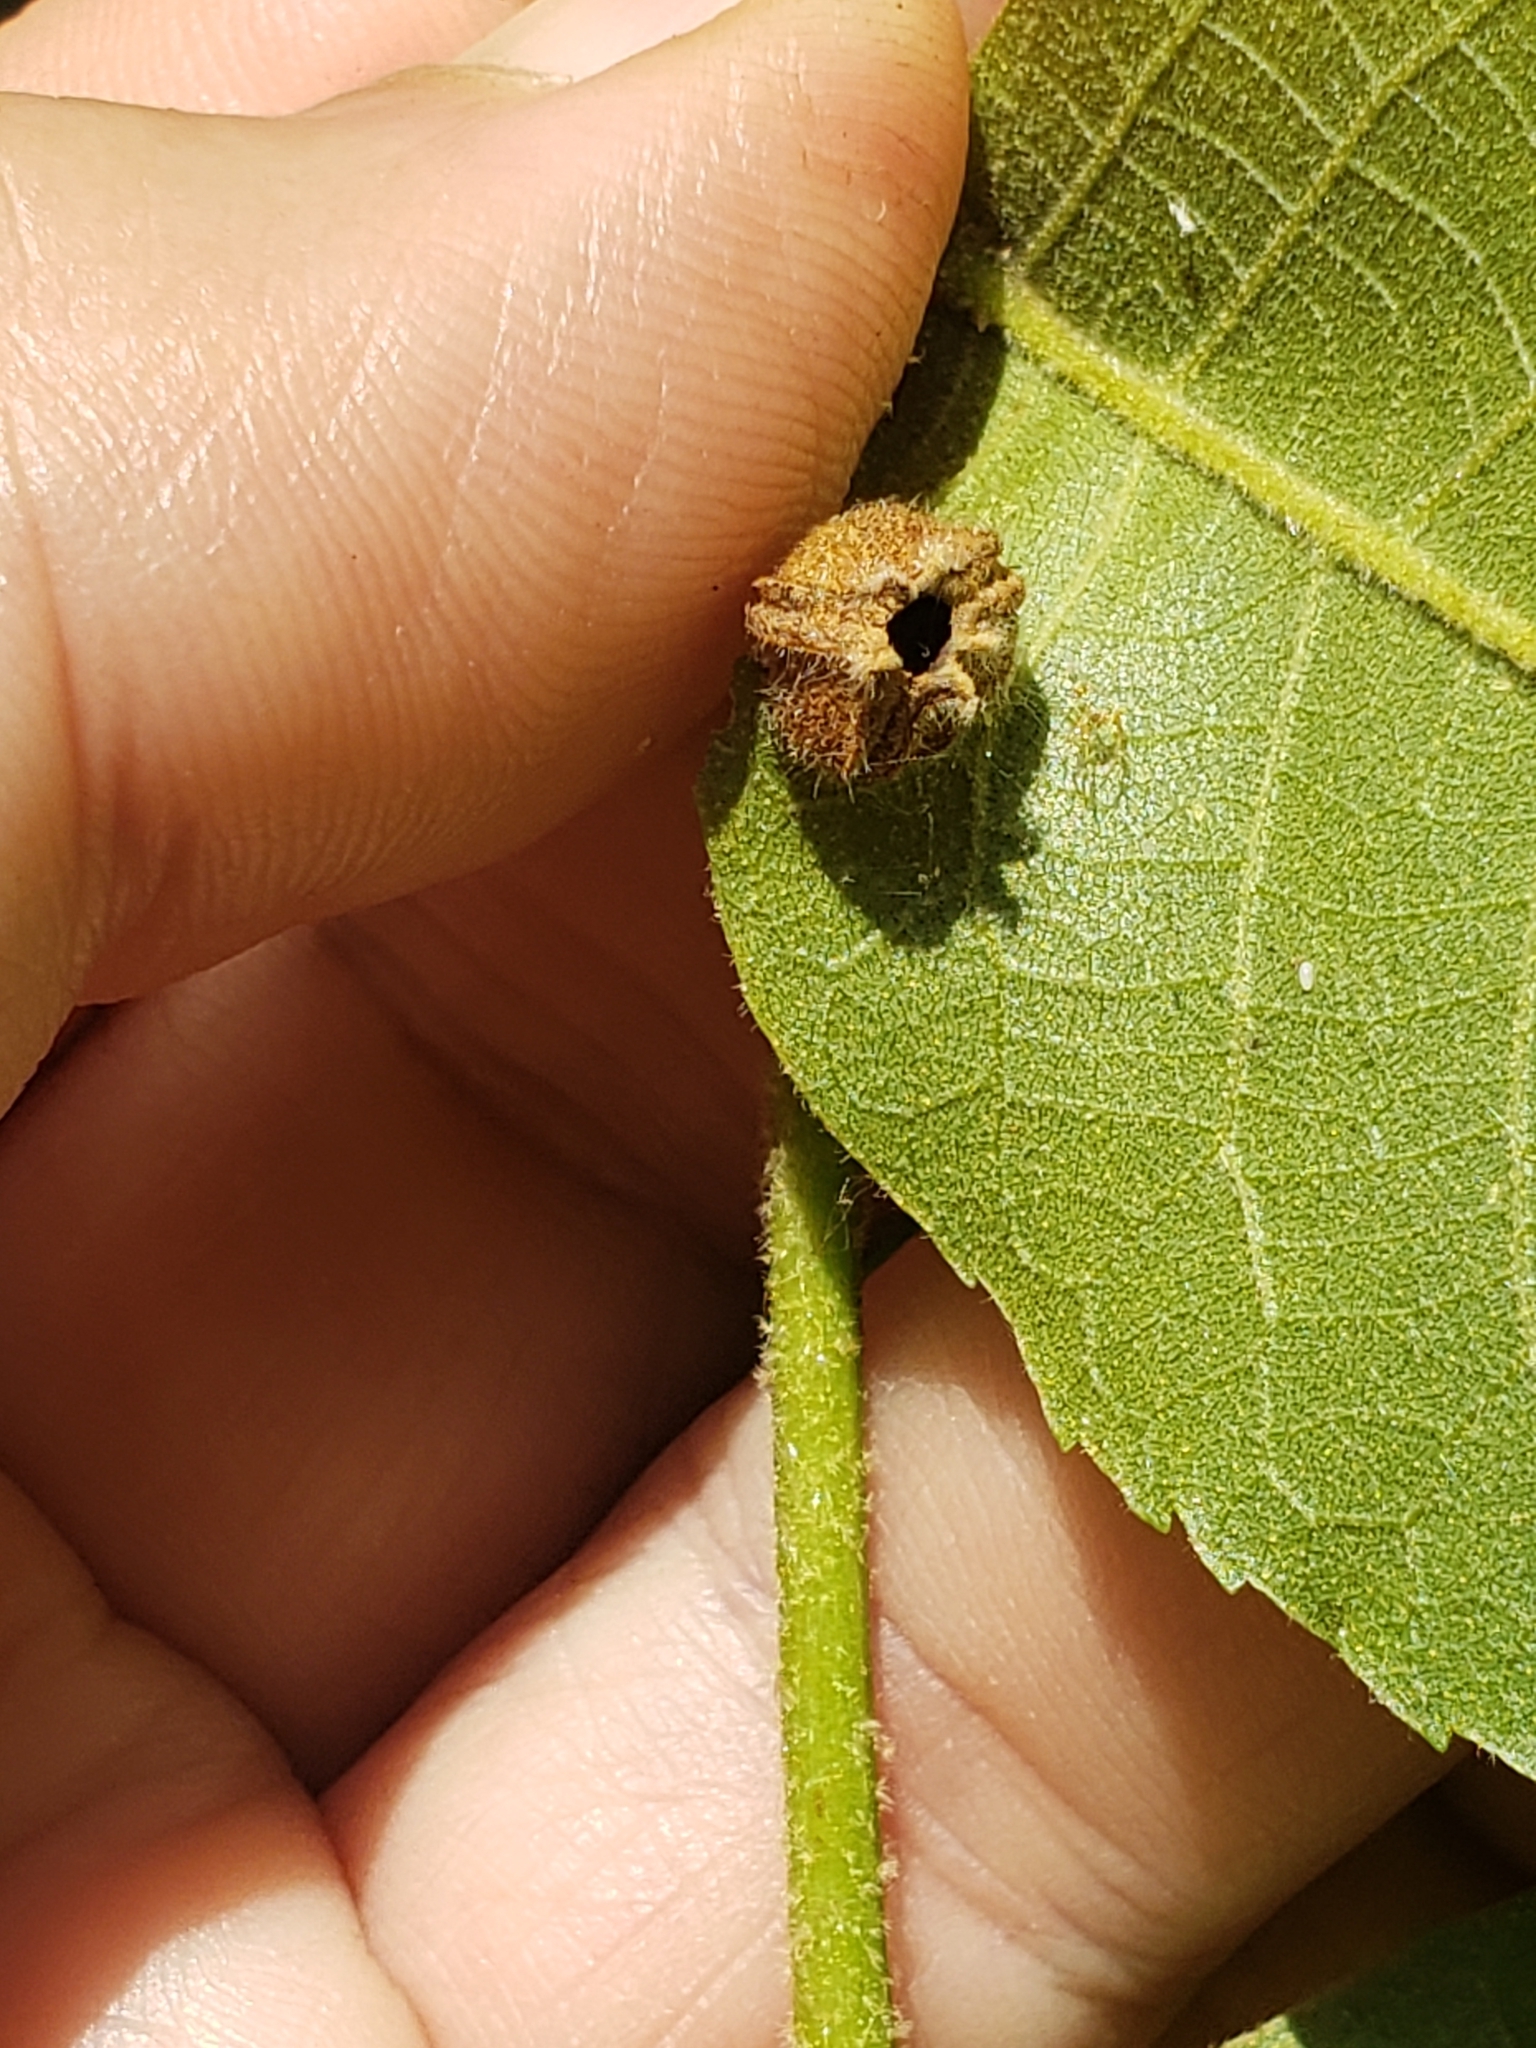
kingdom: Animalia
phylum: Arthropoda
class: Insecta
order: Hemiptera
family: Phylloxeridae
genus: Phylloxera
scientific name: Phylloxera caryae-avellana
